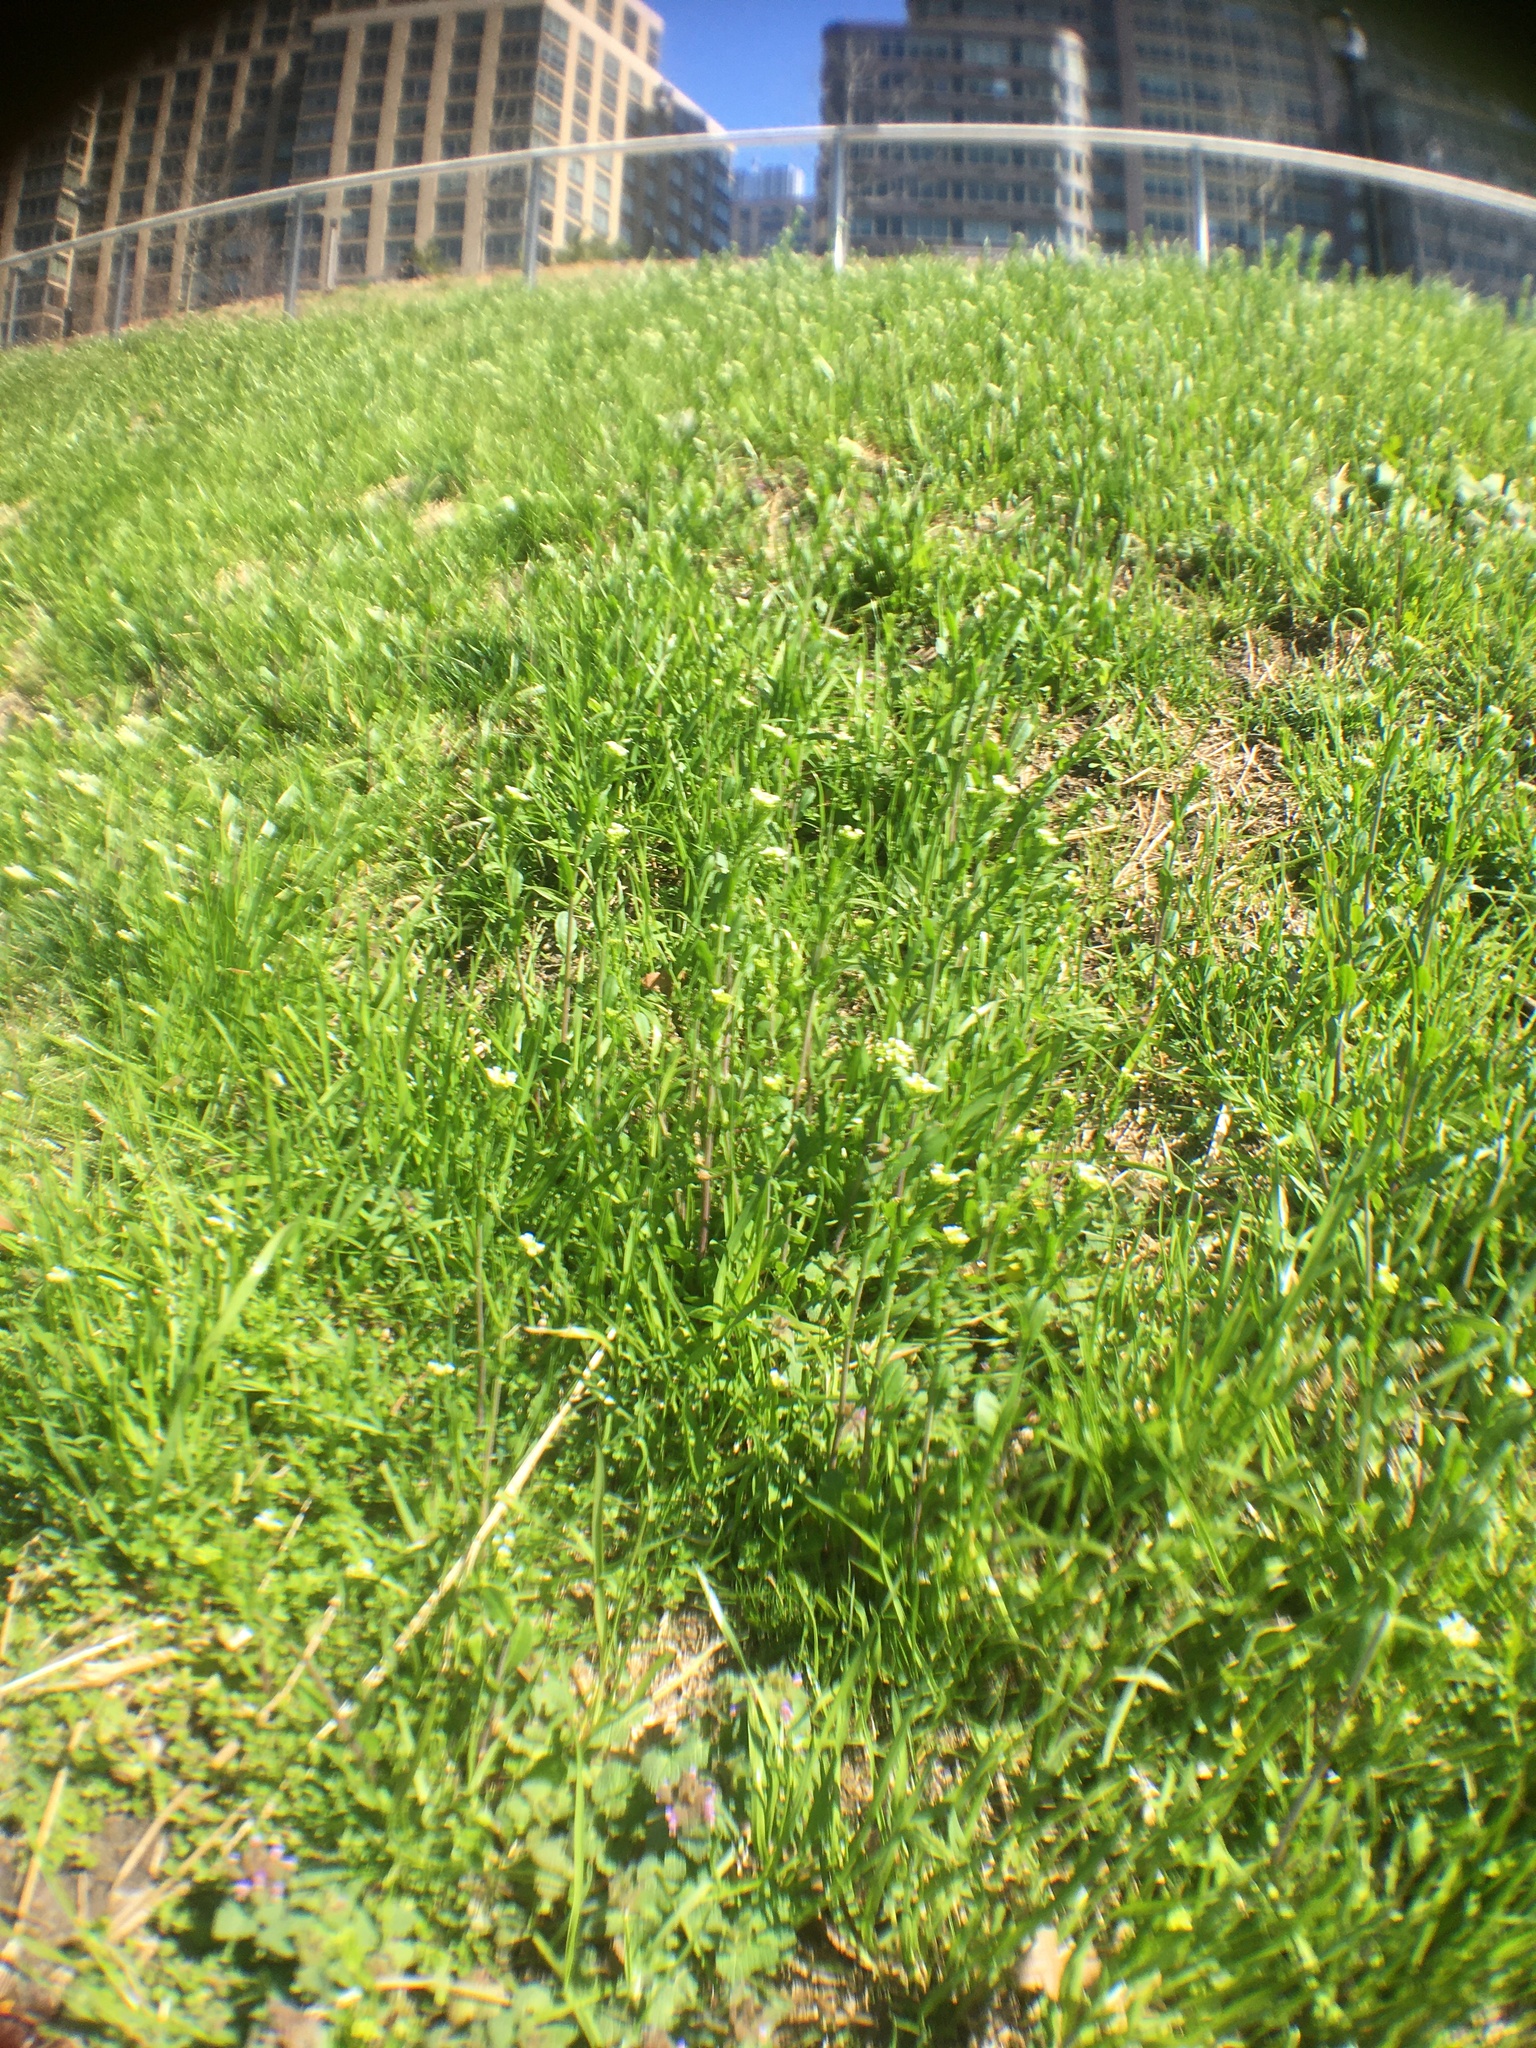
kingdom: Plantae
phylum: Tracheophyta
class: Magnoliopsida
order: Brassicales
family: Brassicaceae
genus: Mummenhoffia
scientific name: Mummenhoffia alliacea
